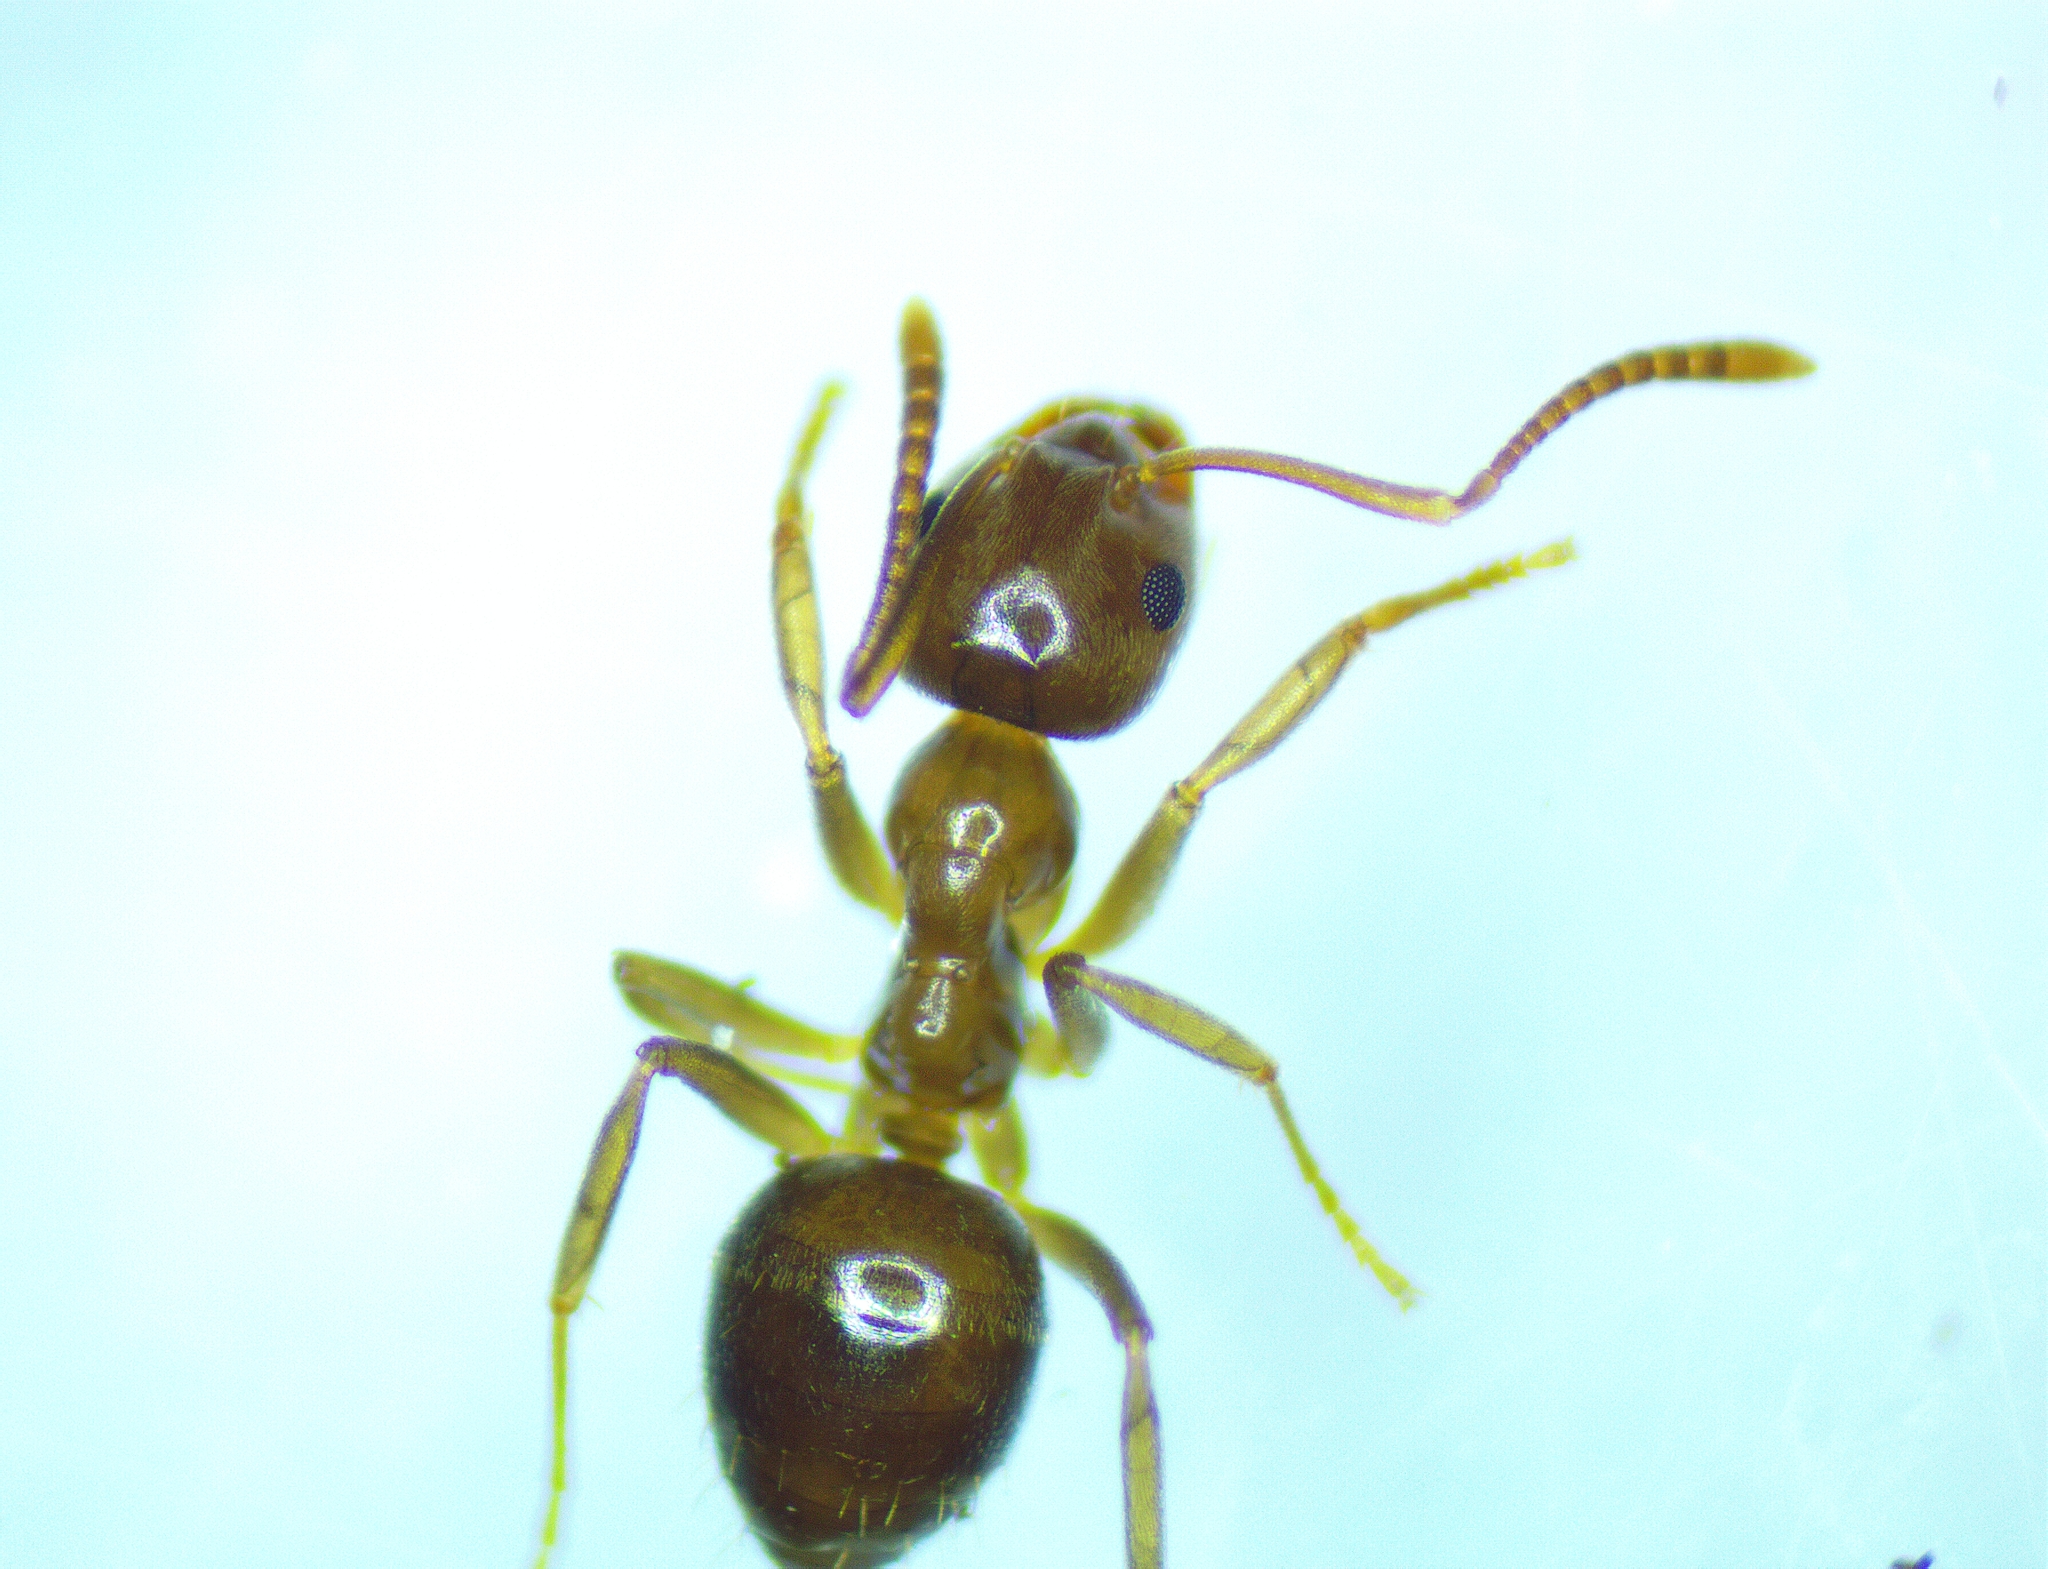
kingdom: Animalia
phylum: Arthropoda
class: Insecta
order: Hymenoptera
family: Formicidae
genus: Prolasius
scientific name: Prolasius advenus
